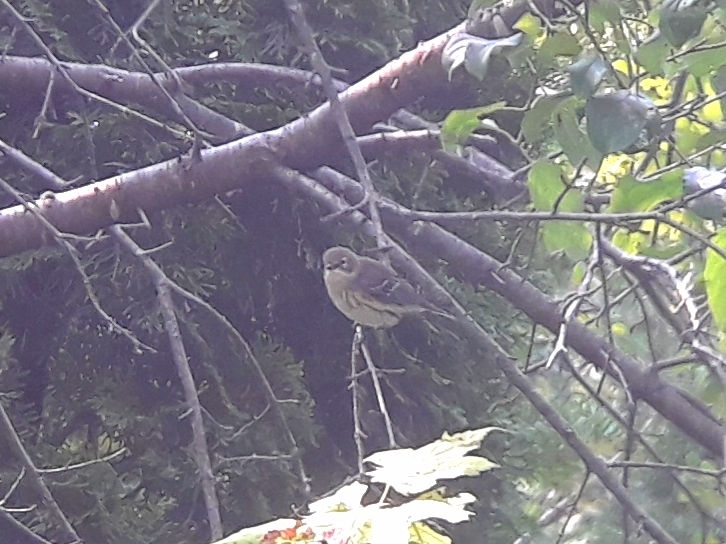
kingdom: Animalia
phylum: Chordata
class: Aves
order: Passeriformes
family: Parulidae
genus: Setophaga
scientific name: Setophaga coronata
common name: Myrtle warbler
